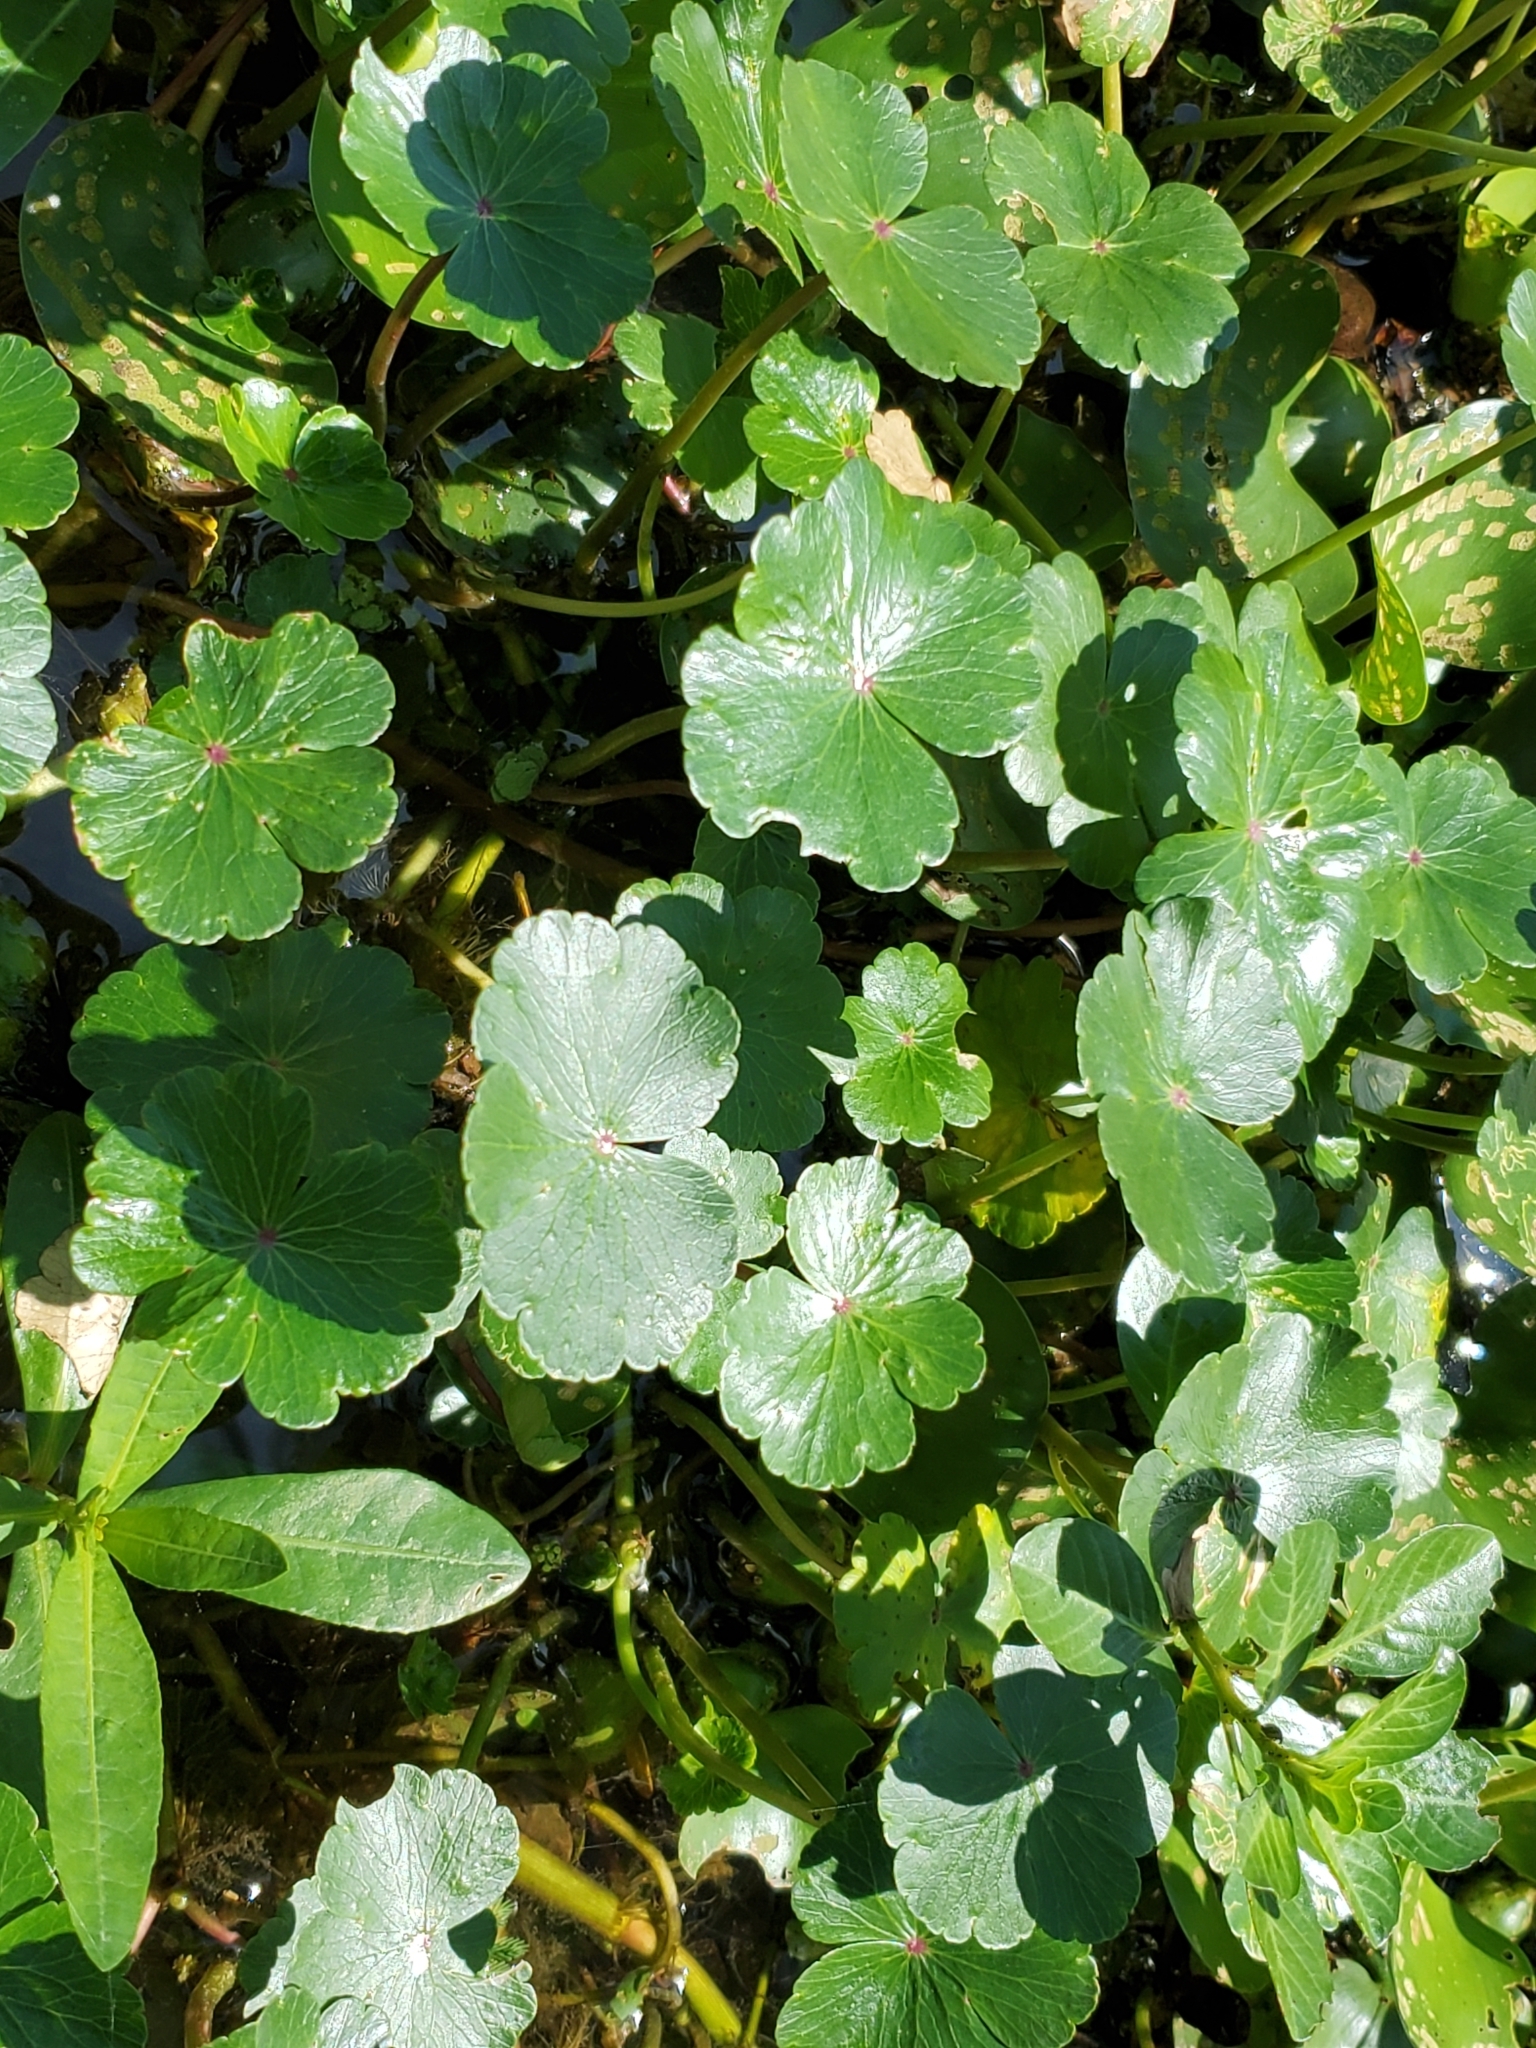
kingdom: Plantae
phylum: Tracheophyta
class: Magnoliopsida
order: Apiales
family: Araliaceae
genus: Hydrocotyle
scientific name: Hydrocotyle ranunculoides
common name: Floating pennywort
